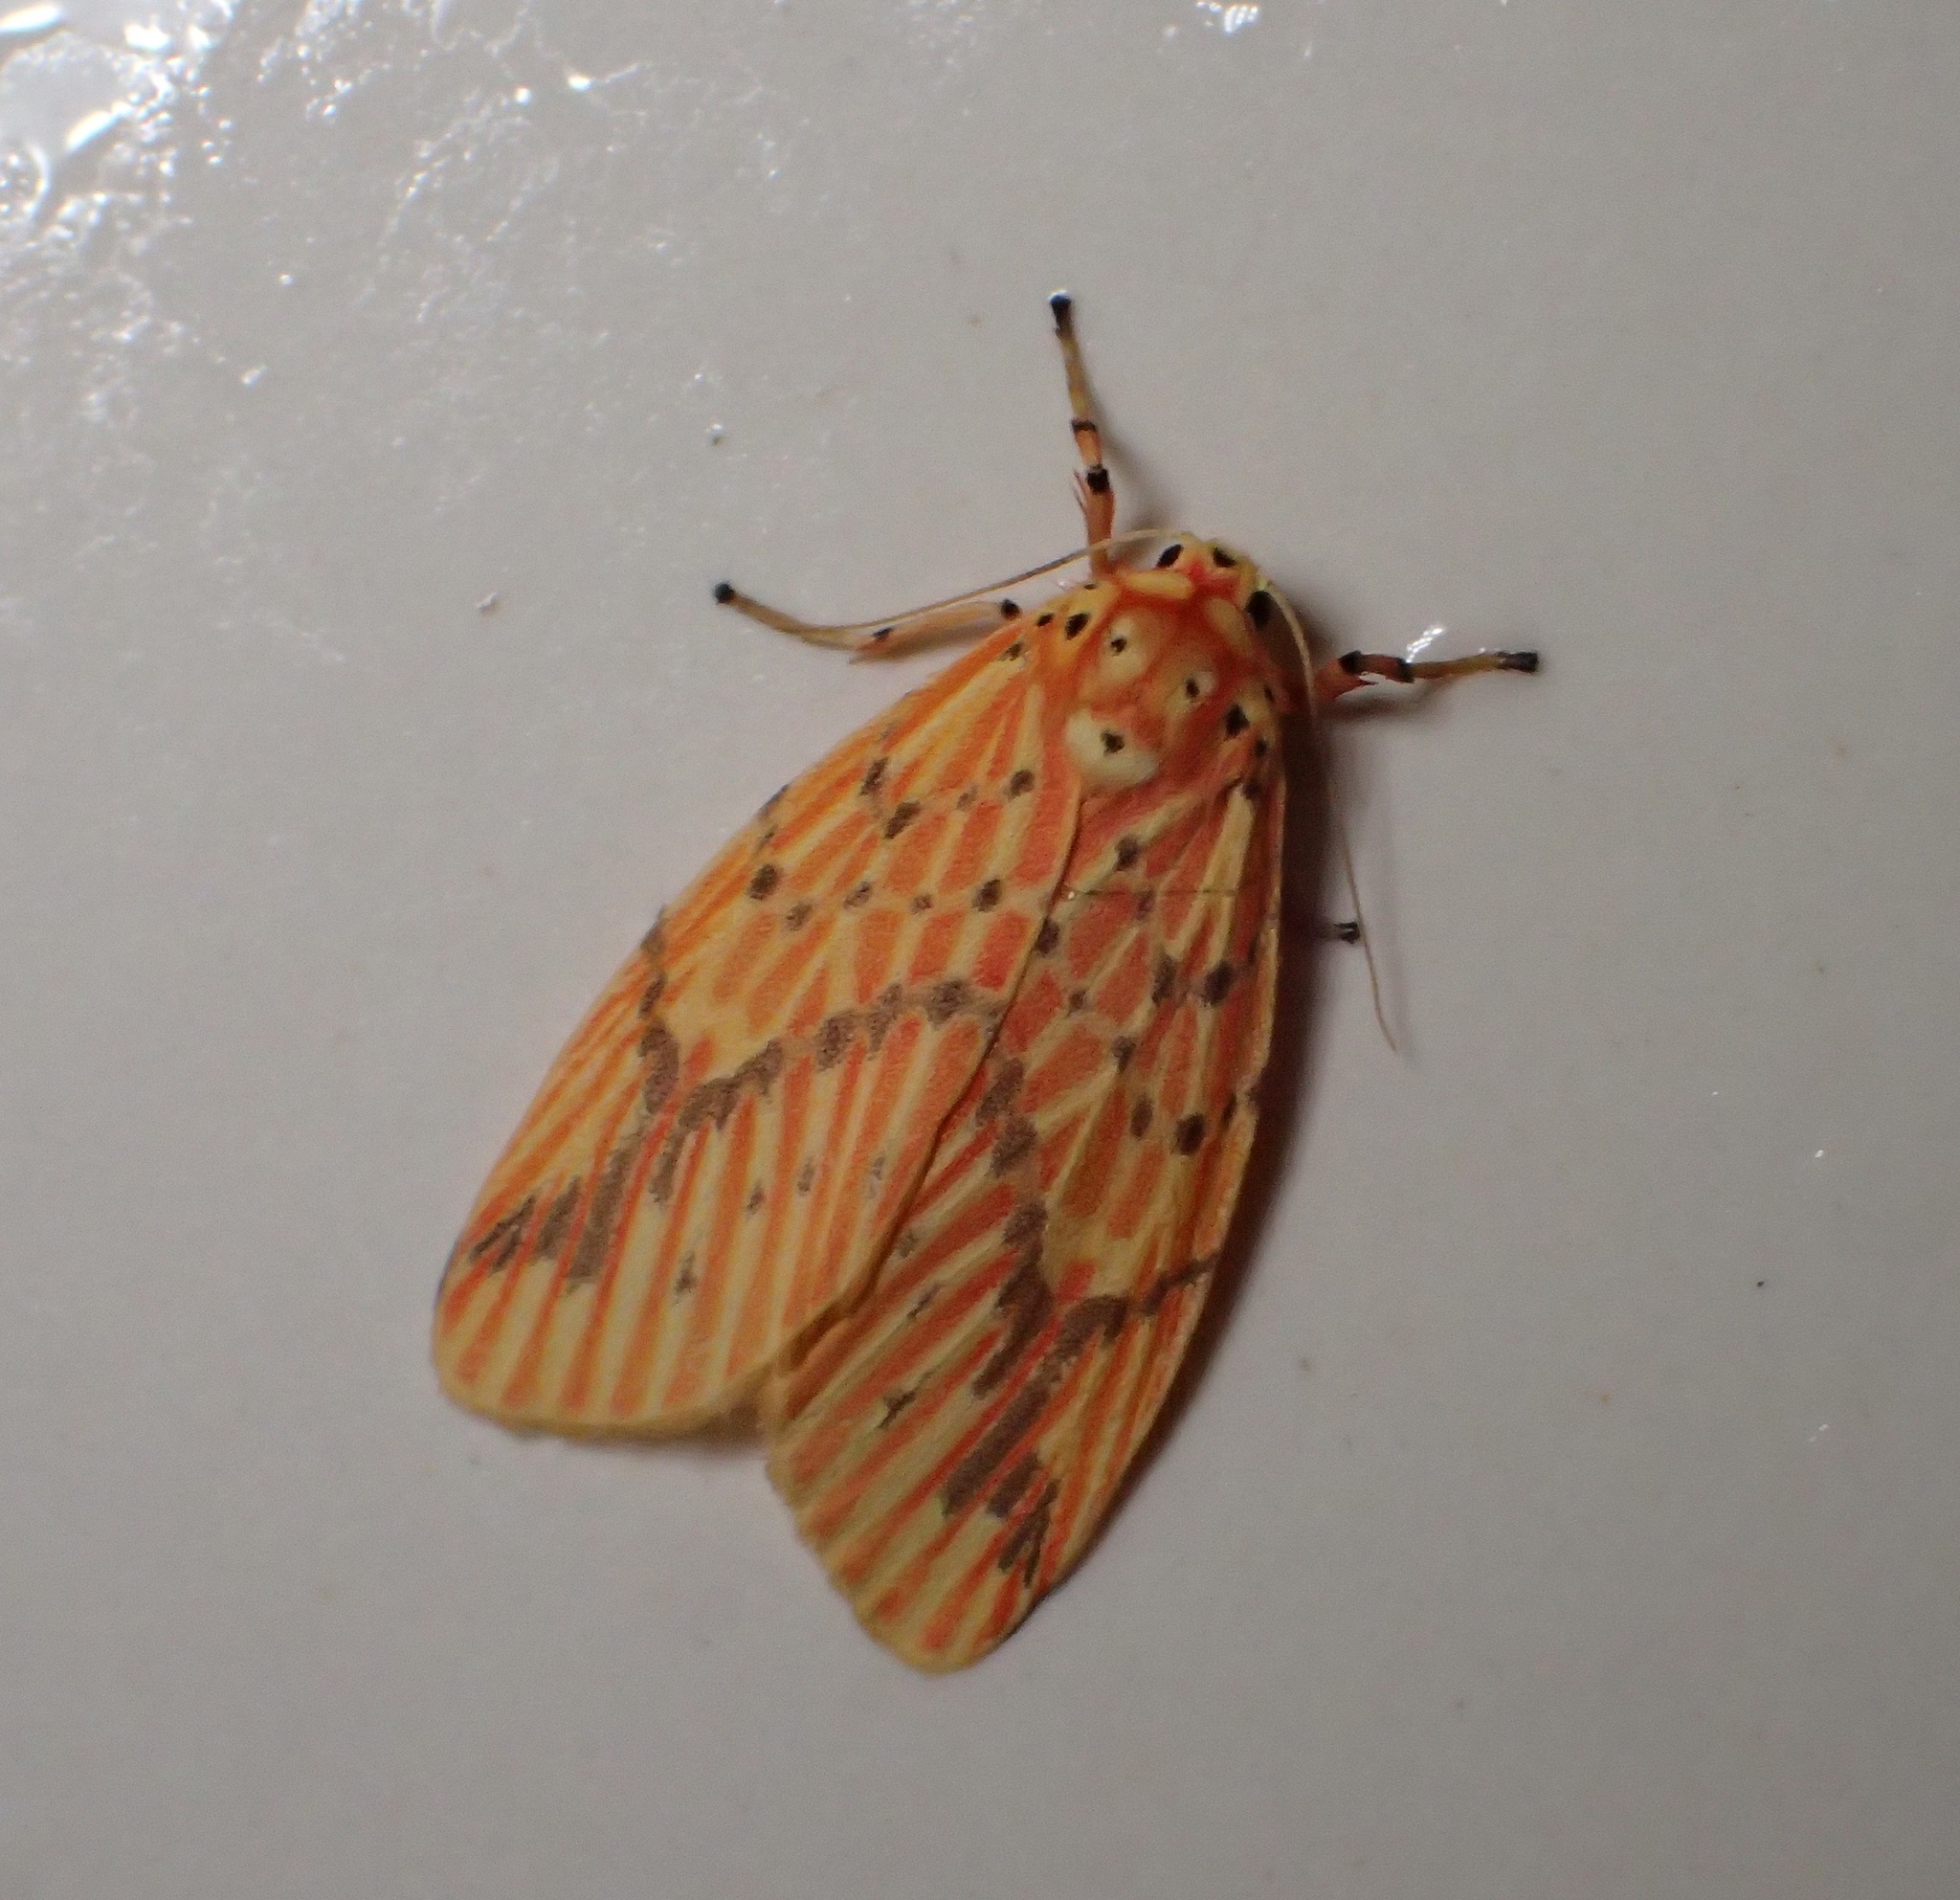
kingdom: Animalia
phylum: Arthropoda
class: Insecta
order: Lepidoptera
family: Erebidae
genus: Barsine
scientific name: Barsine striata
